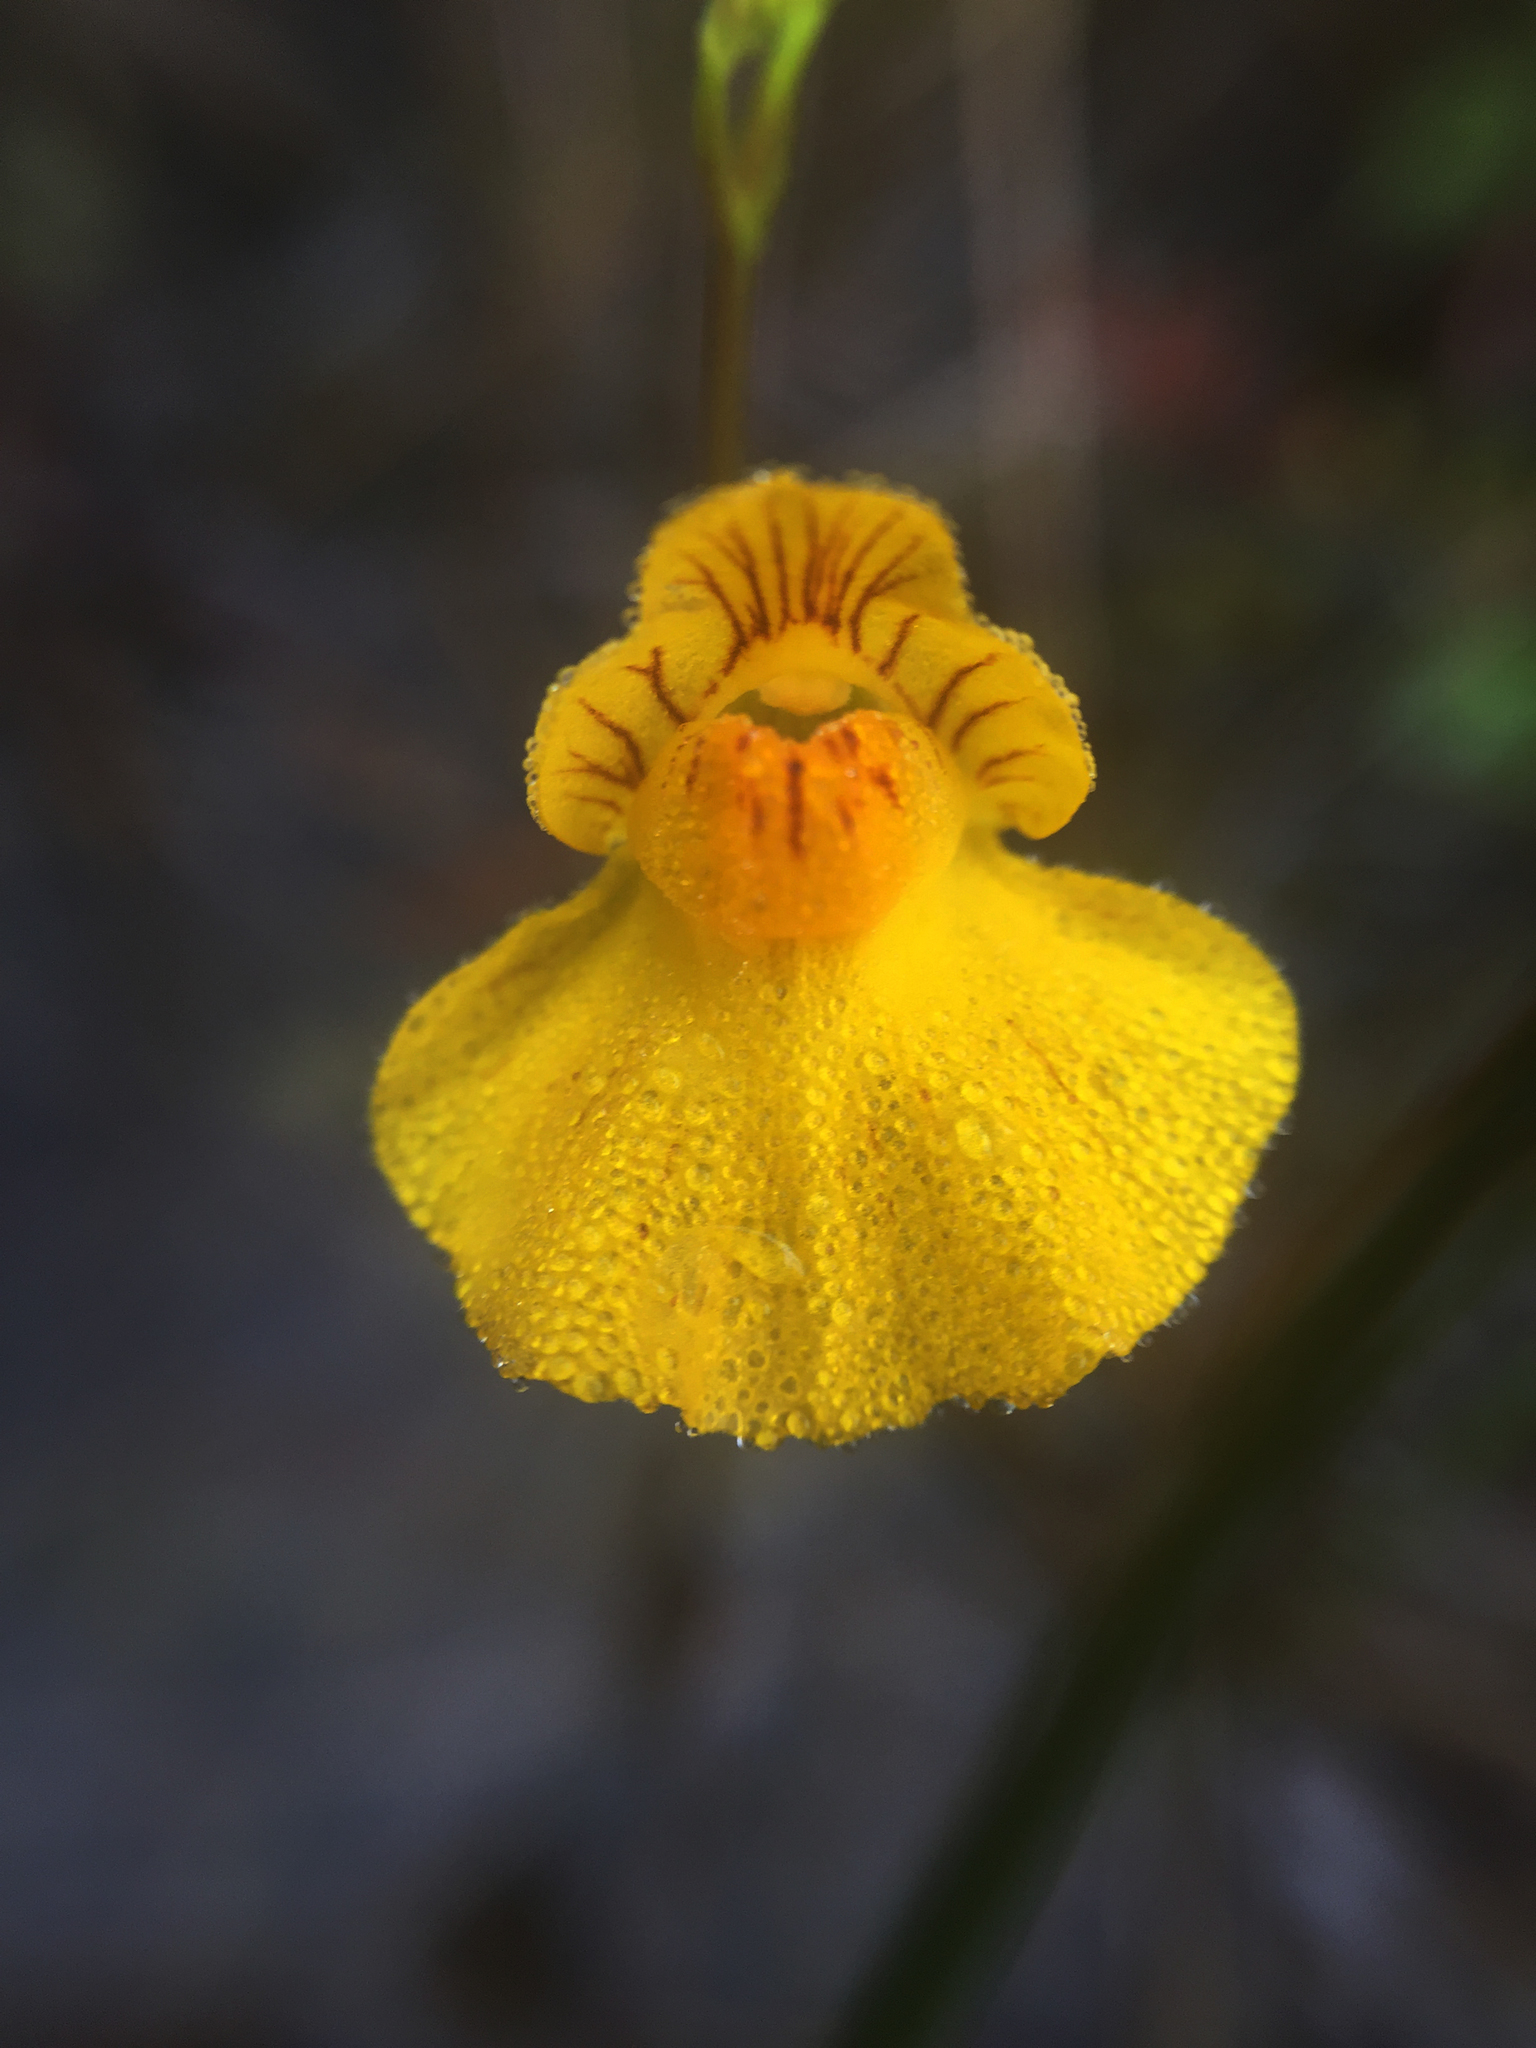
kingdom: Plantae
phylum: Tracheophyta
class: Magnoliopsida
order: Lamiales
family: Lentibulariaceae
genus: Utricularia
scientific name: Utricularia intermedia
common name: Intermediate bladderwort
